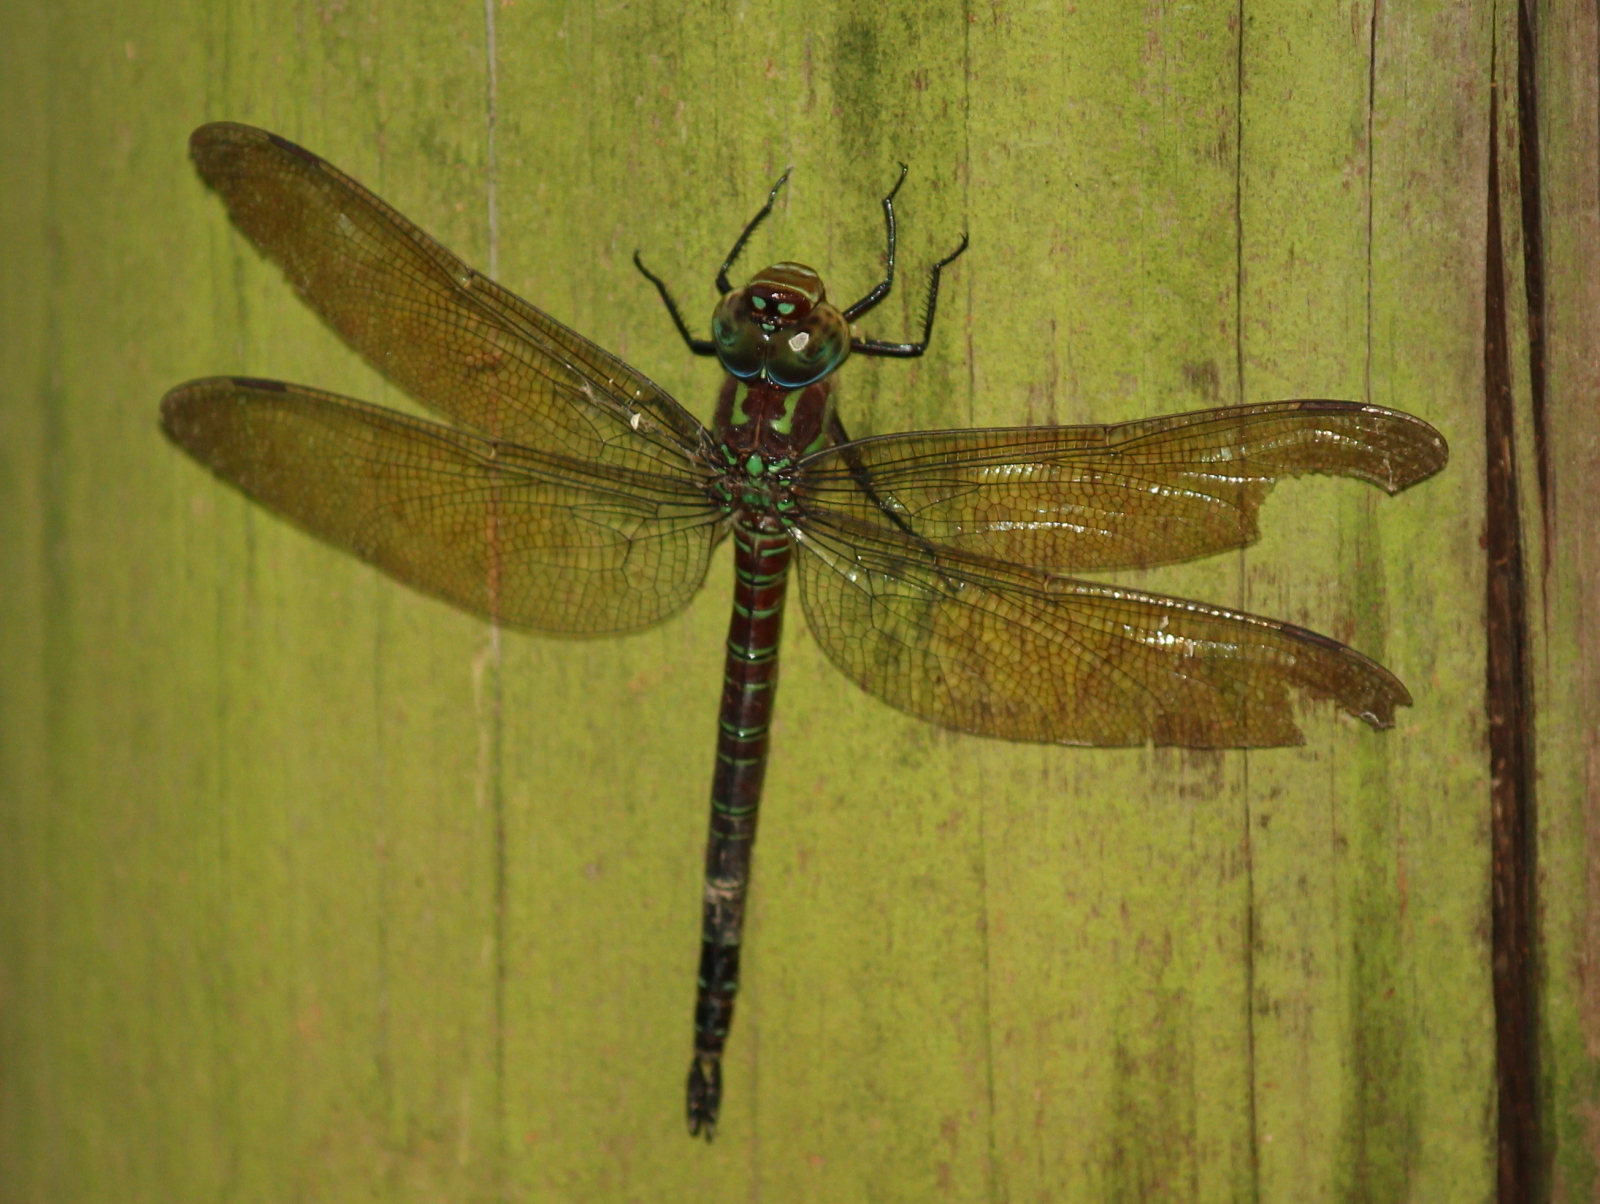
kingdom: Animalia
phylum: Arthropoda
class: Insecta
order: Odonata
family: Aeshnidae
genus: Epiaeschna
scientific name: Epiaeschna heros
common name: Swamp darner
